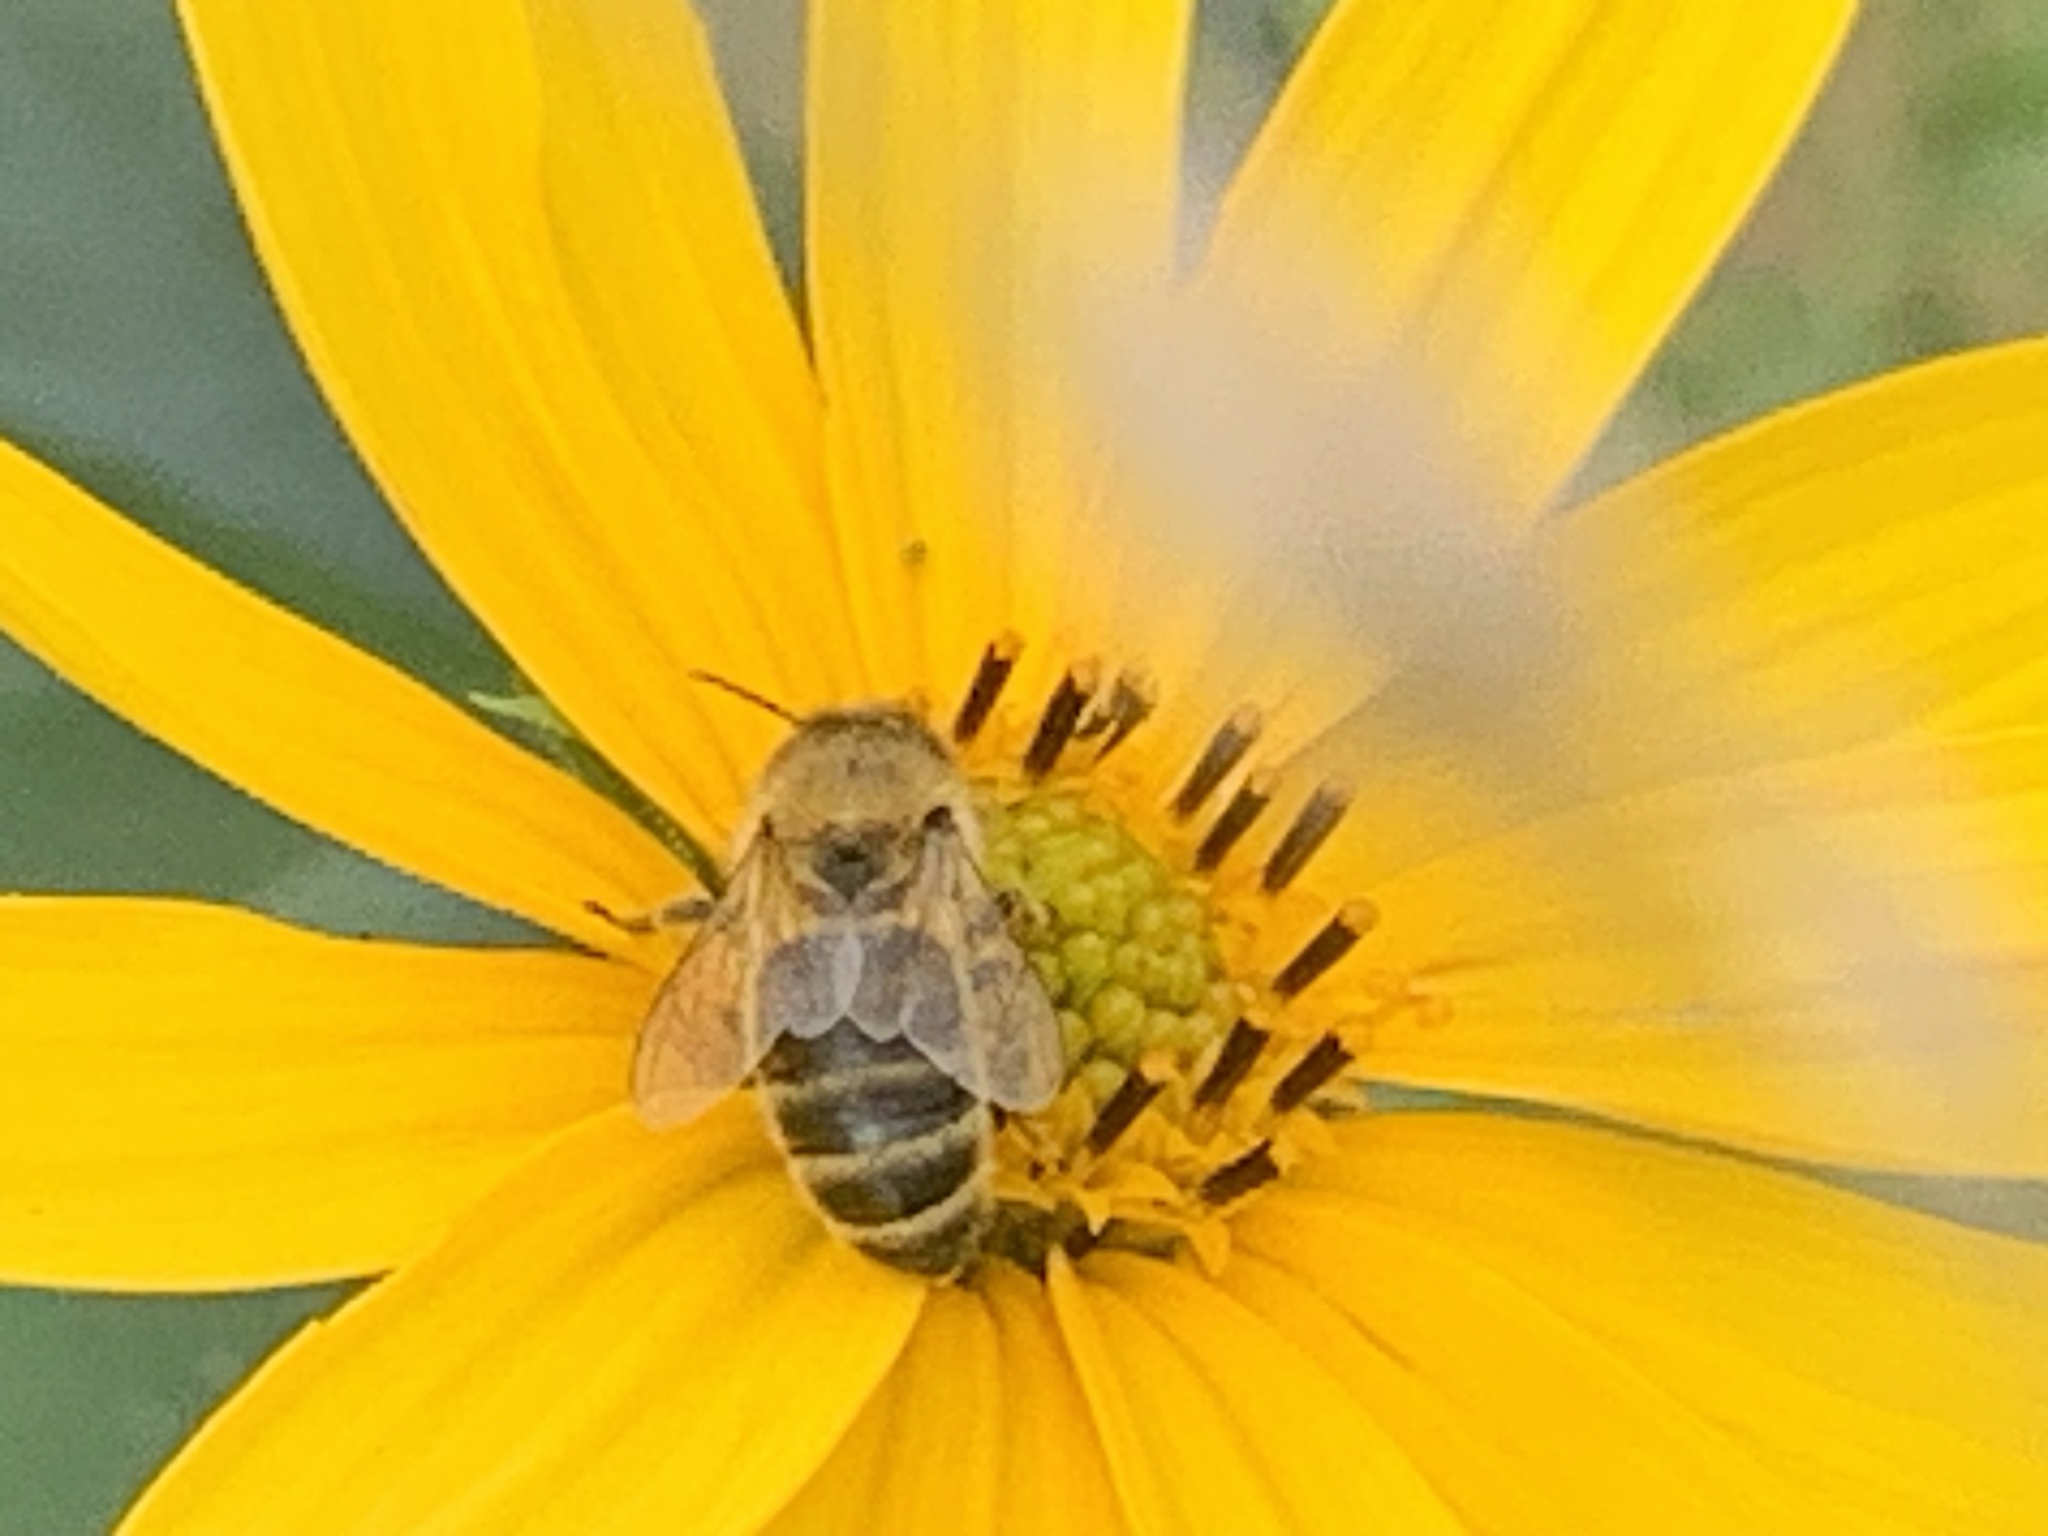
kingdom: Animalia
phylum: Arthropoda
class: Insecta
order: Hymenoptera
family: Apidae
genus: Apis
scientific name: Apis mellifera
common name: Honey bee
